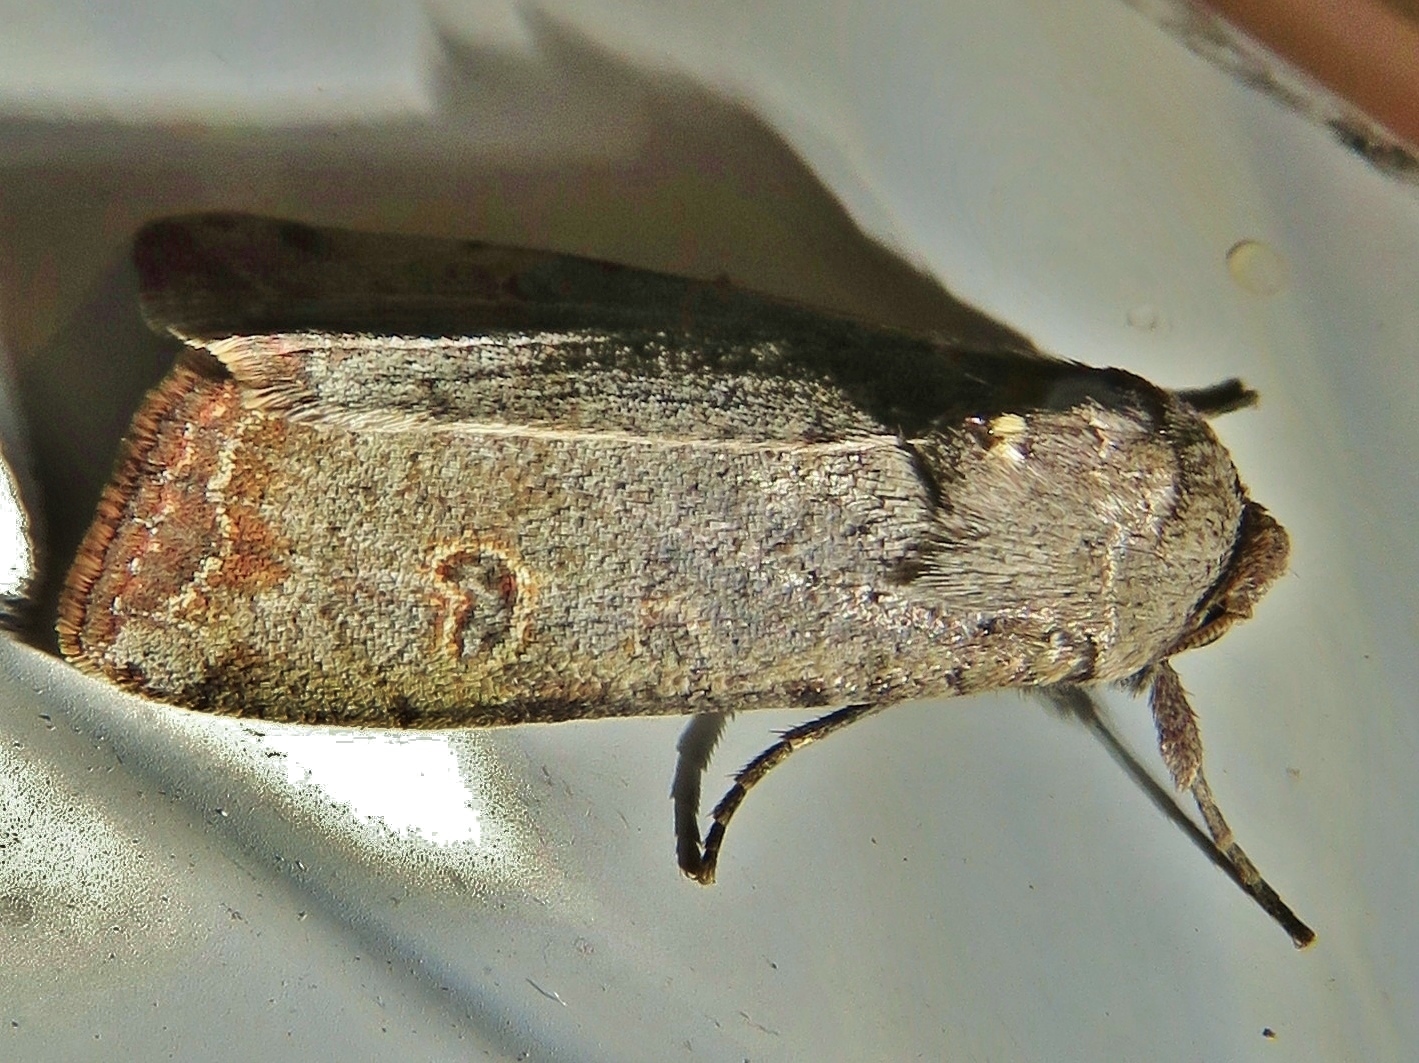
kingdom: Animalia
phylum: Arthropoda
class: Insecta
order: Lepidoptera
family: Noctuidae
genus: Anicla
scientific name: Anicla infecta
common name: Green cutworm
